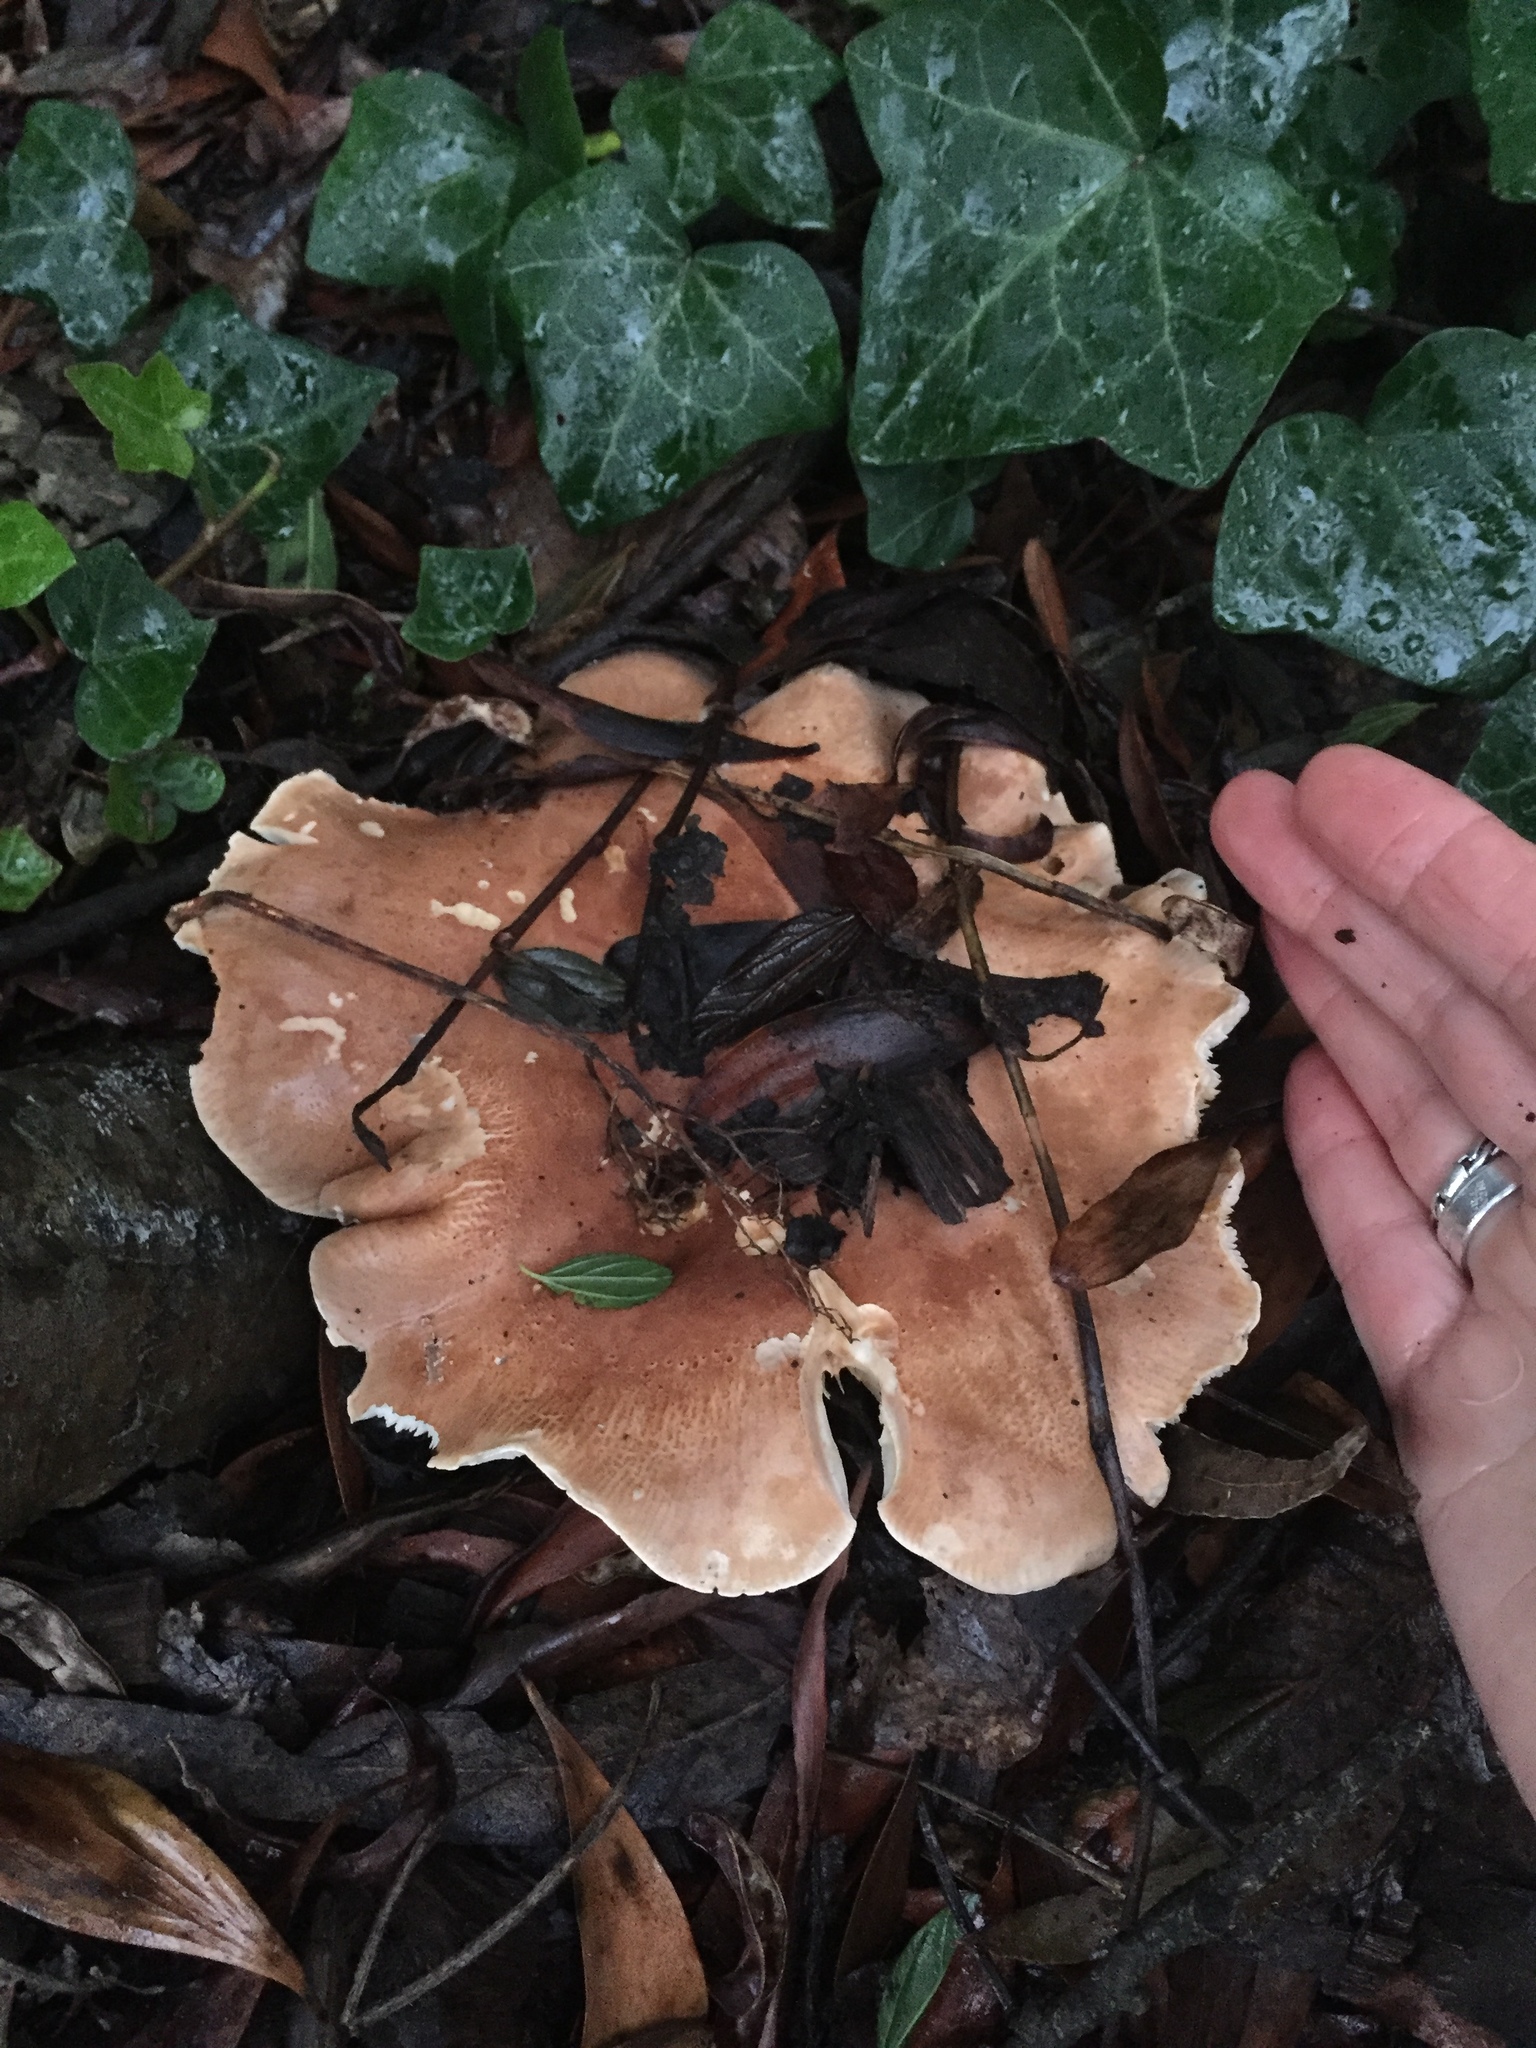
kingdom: Fungi
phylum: Basidiomycota
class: Agaricomycetes
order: Agaricales
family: Tricholomataceae
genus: Leucopaxillus
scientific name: Leucopaxillus gentianeus
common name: Bitter funnel
